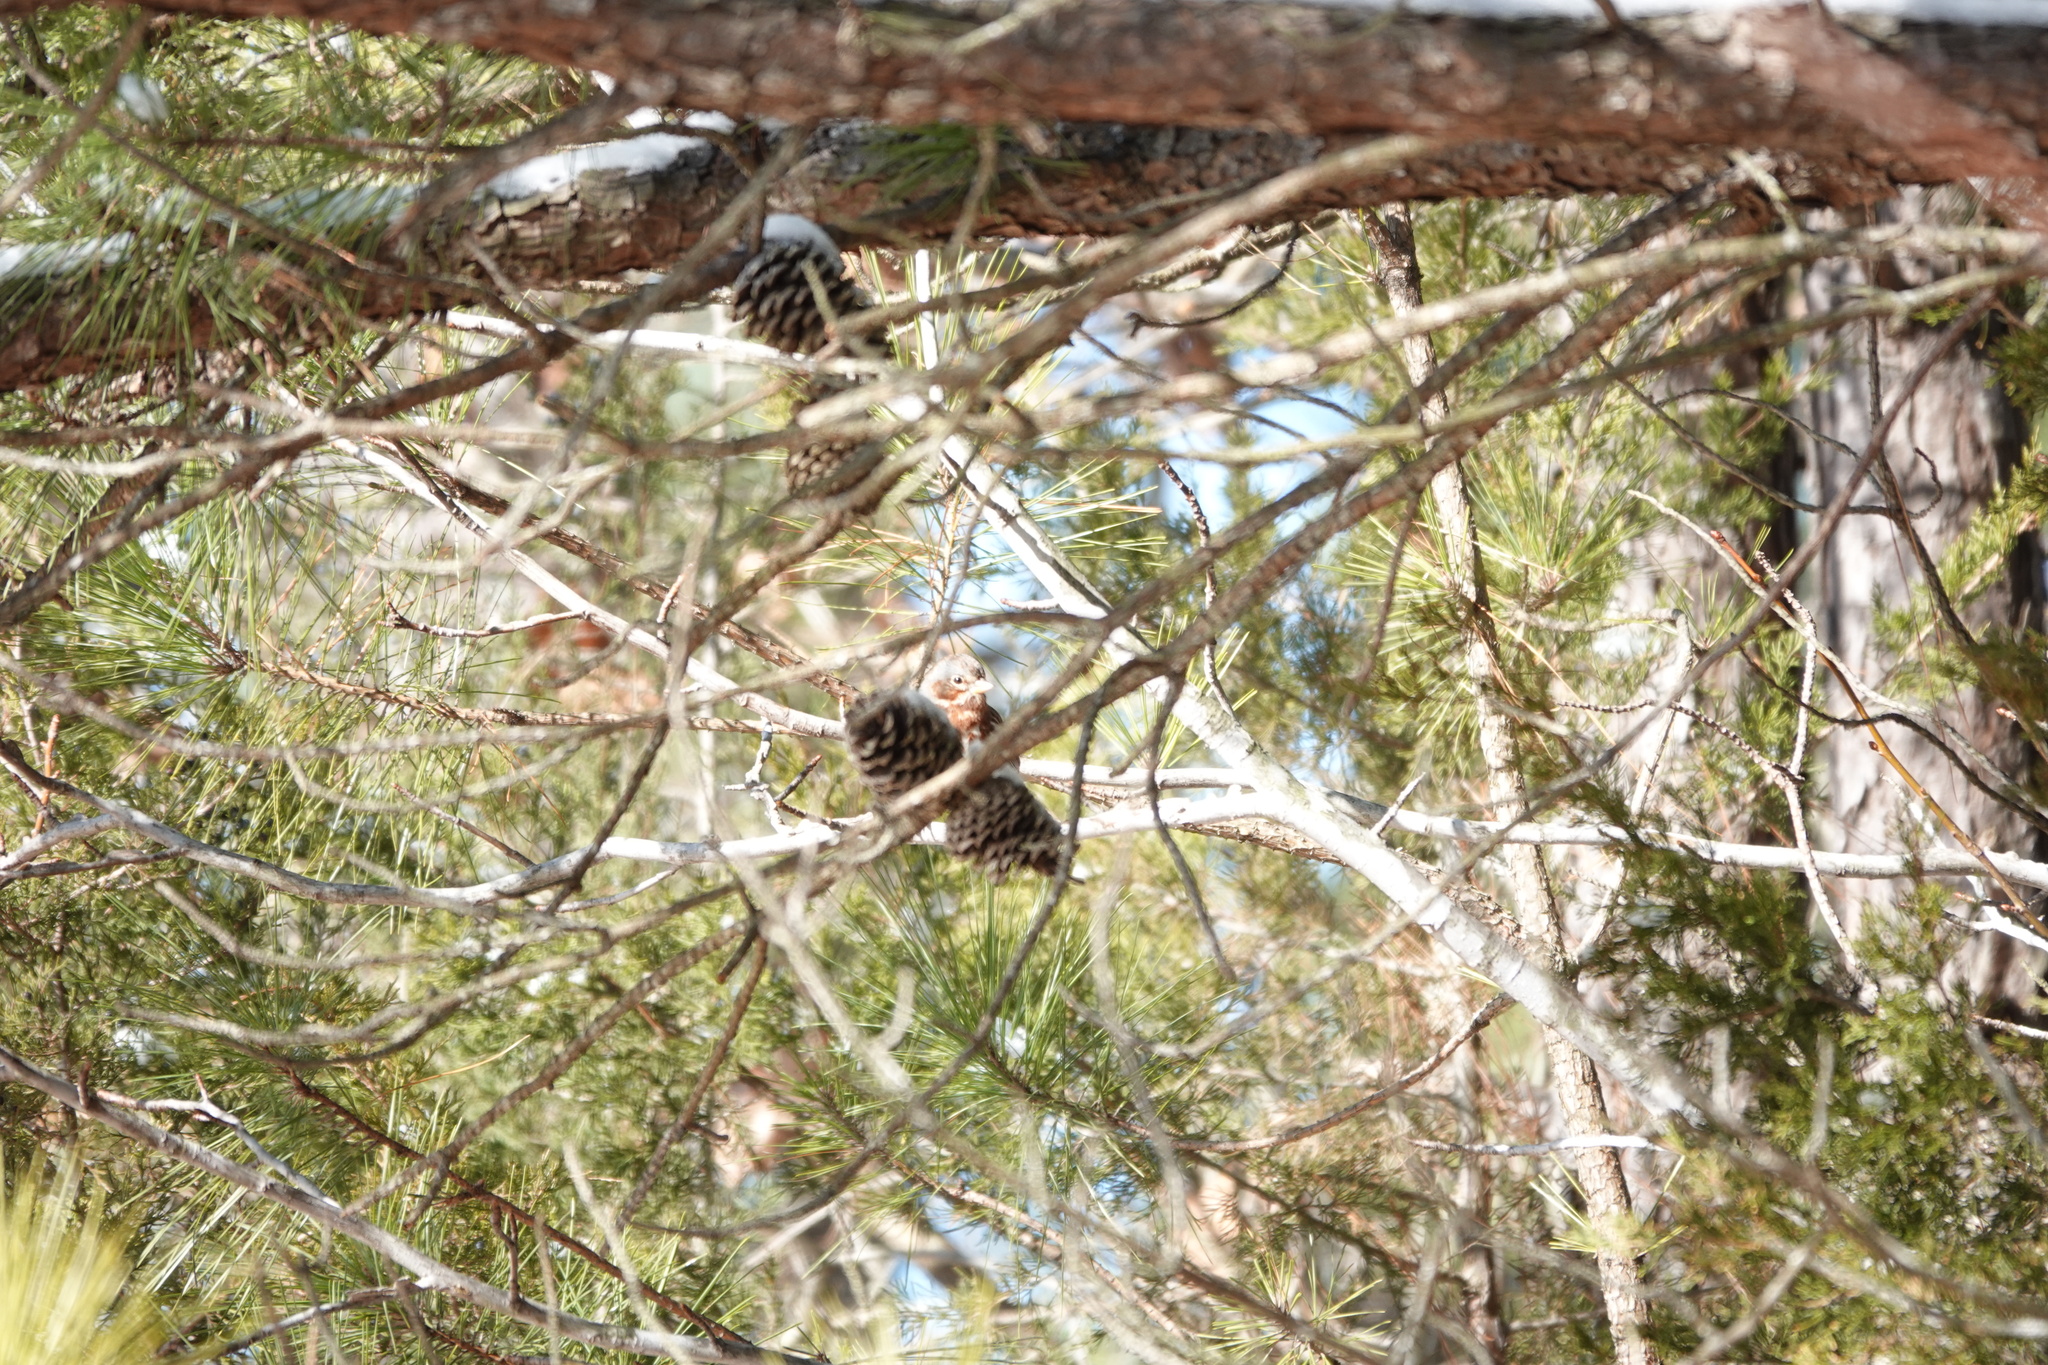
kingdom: Animalia
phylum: Chordata
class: Aves
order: Passeriformes
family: Passerellidae
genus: Passerella
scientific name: Passerella iliaca
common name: Fox sparrow
